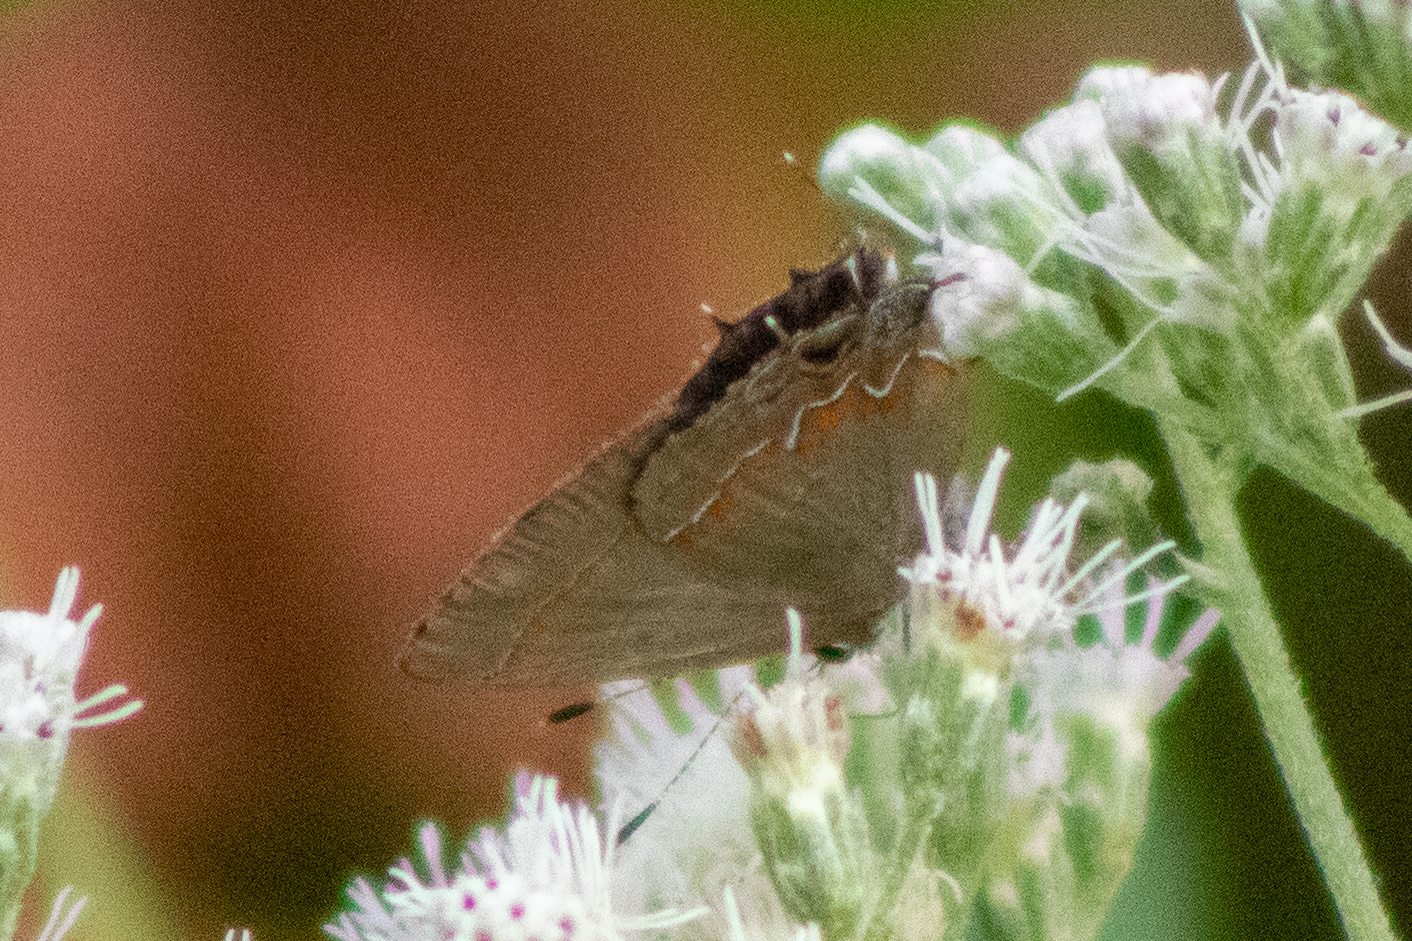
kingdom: Animalia
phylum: Arthropoda
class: Insecta
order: Lepidoptera
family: Lycaenidae
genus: Calycopis
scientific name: Calycopis cecrops
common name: Red-banded hairstreak
